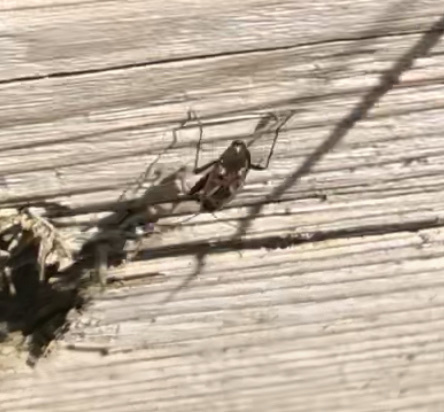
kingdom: Animalia
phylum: Arthropoda
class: Insecta
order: Hemiptera
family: Rhyparochromidae
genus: Rhyparochromus
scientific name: Rhyparochromus vulgaris
